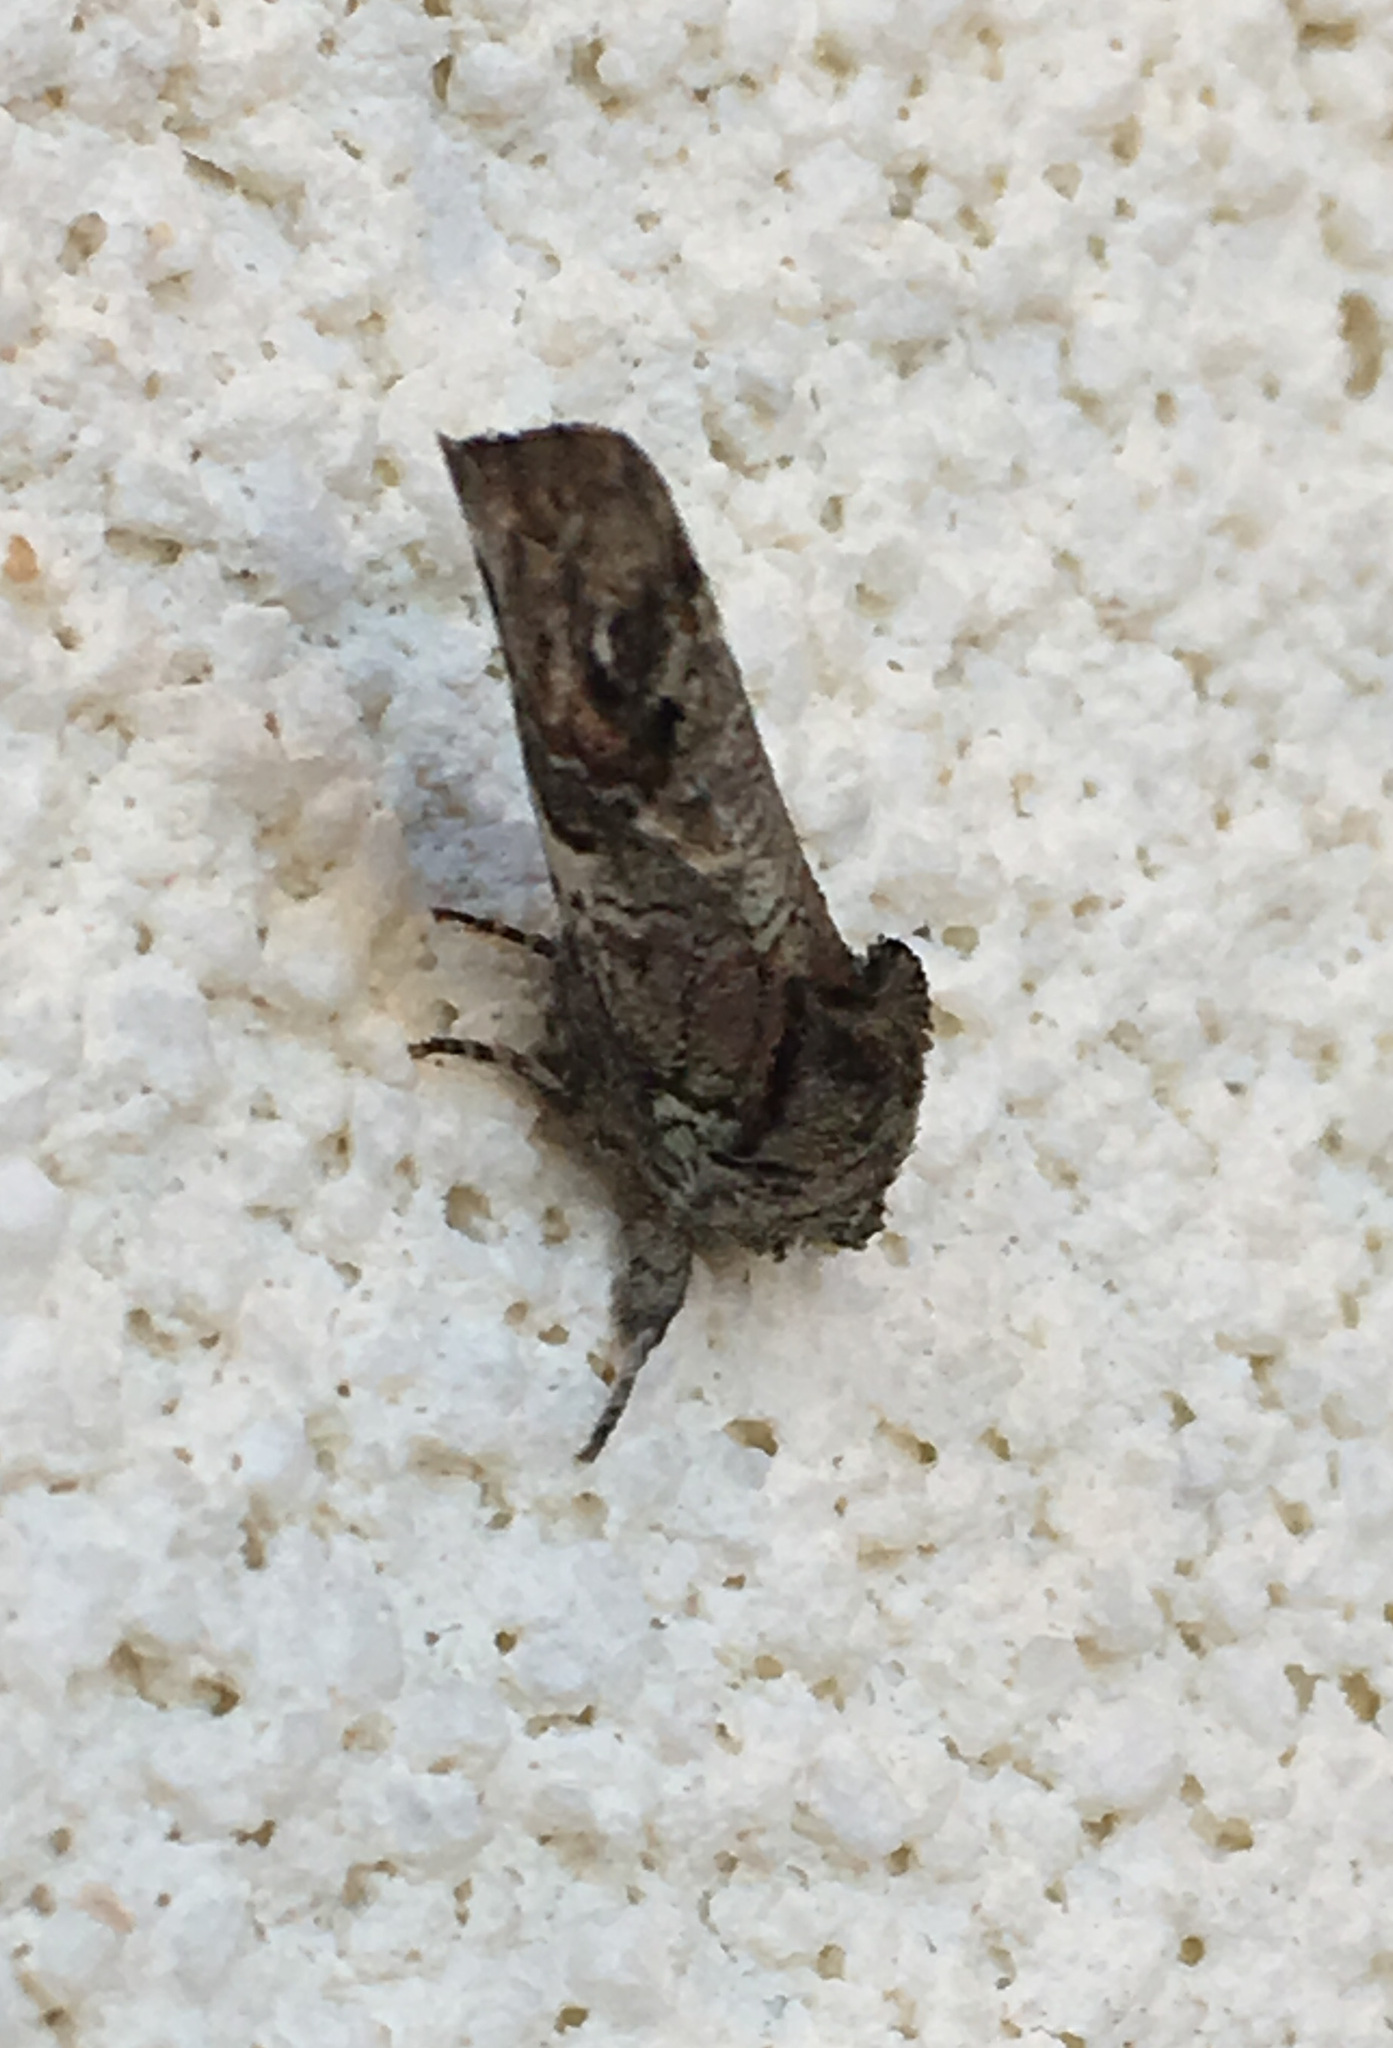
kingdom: Animalia
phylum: Arthropoda
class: Insecta
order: Lepidoptera
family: Notodontidae
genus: Schizura
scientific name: Schizura
